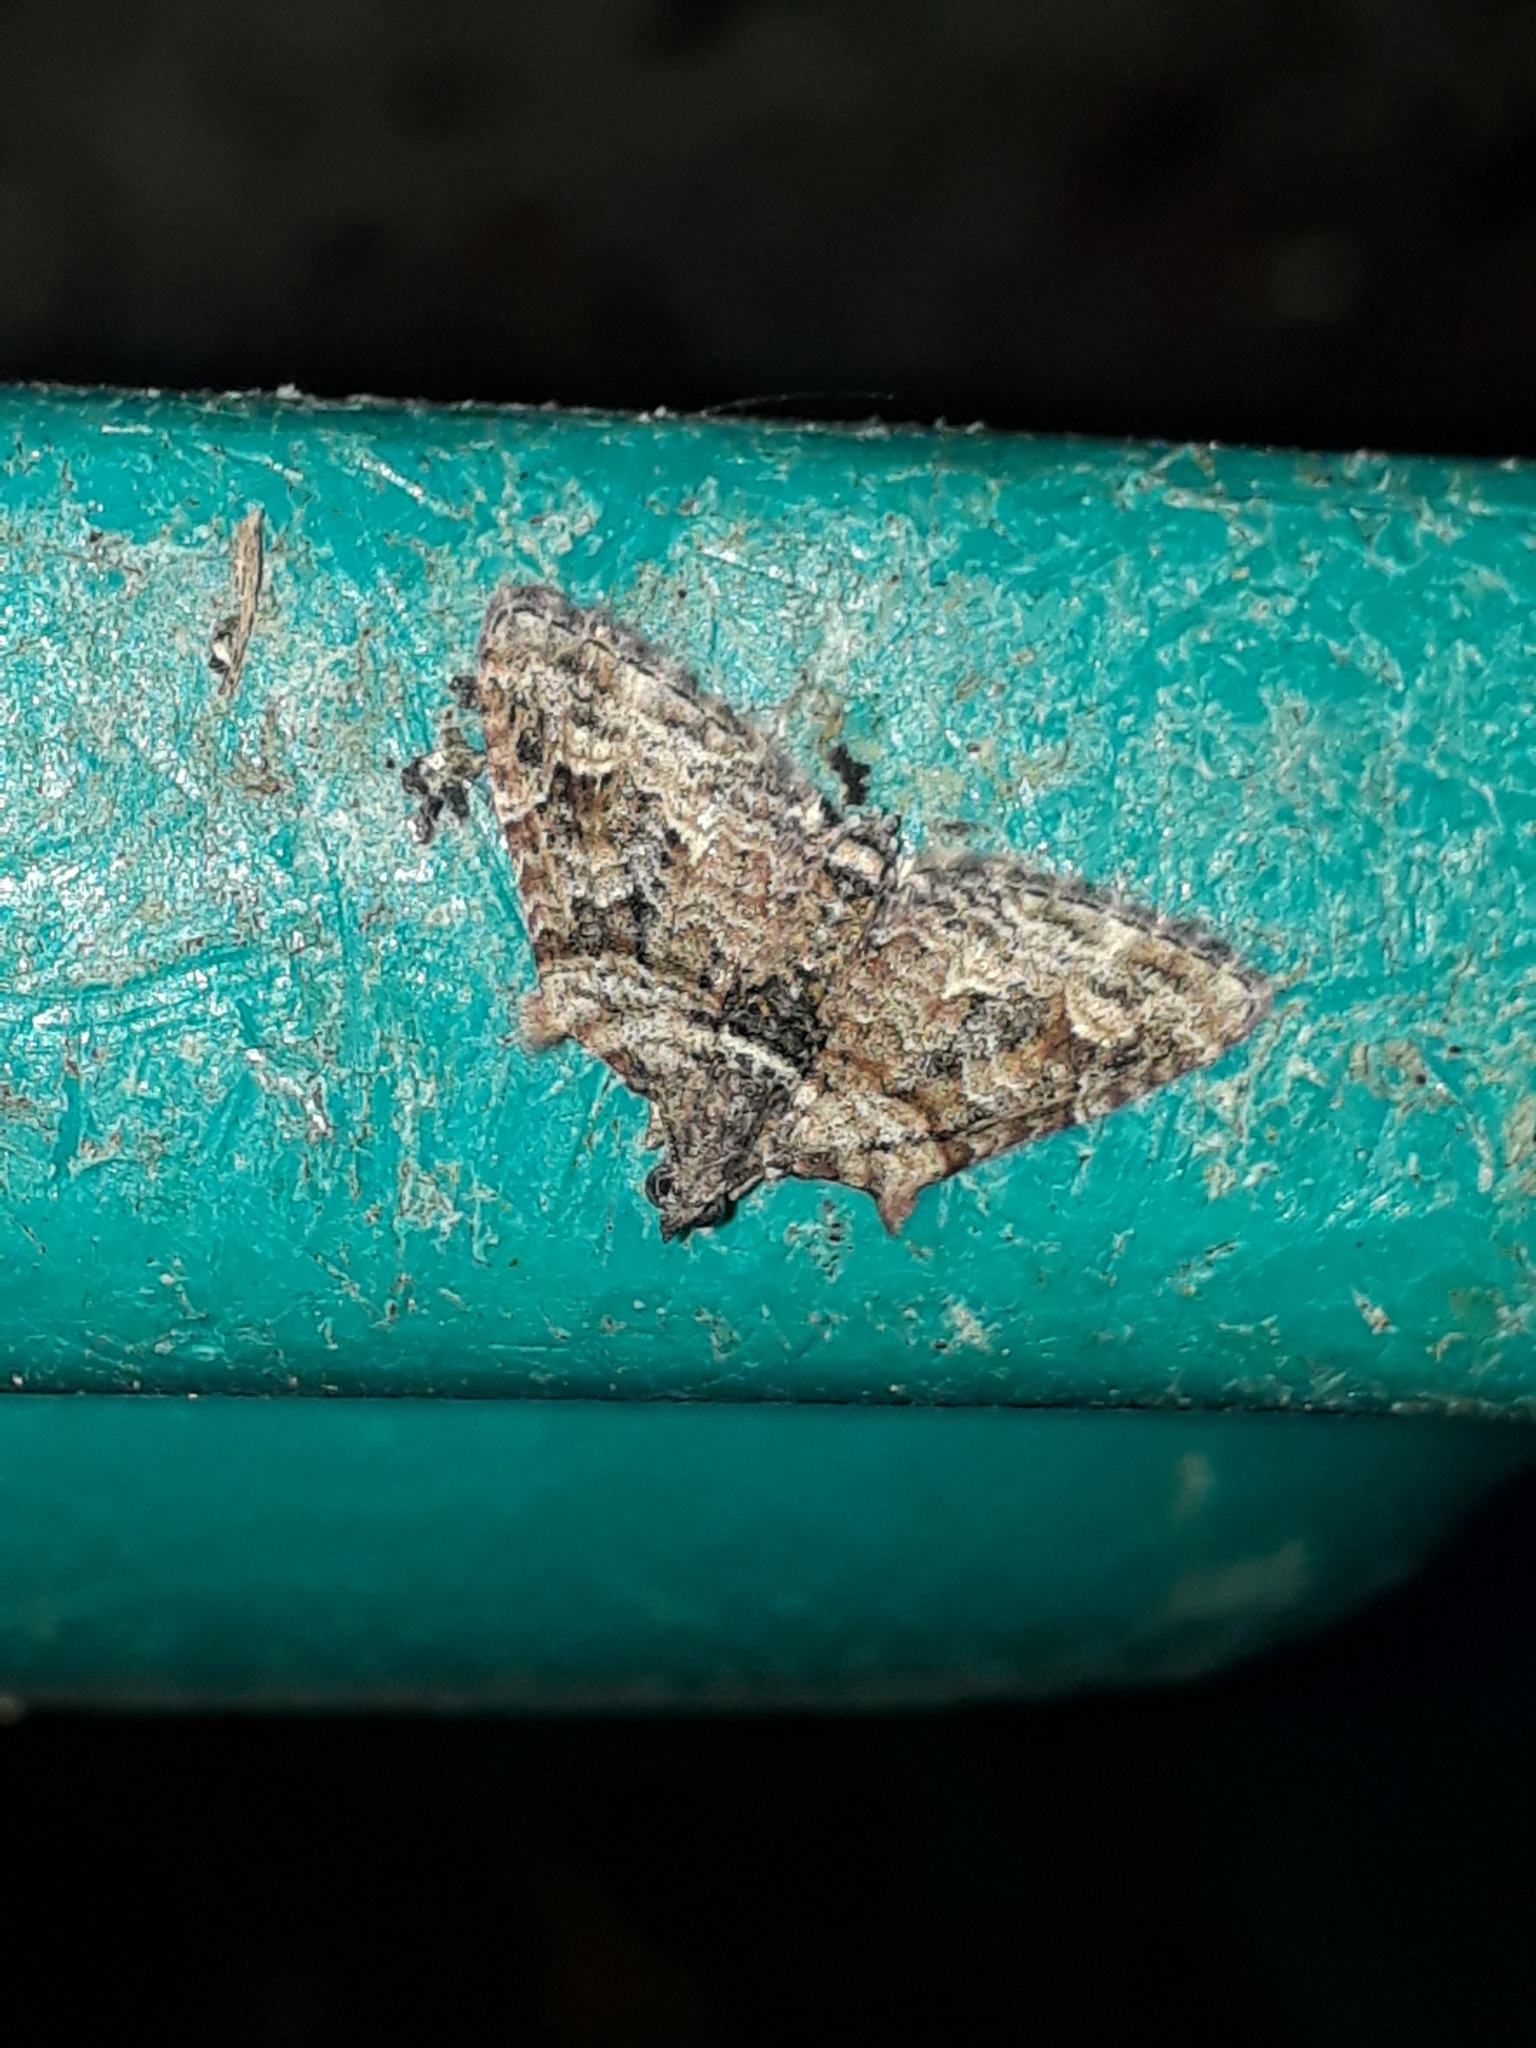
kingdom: Animalia
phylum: Arthropoda
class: Insecta
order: Lepidoptera
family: Geometridae
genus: Phrissogonus
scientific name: Phrissogonus laticostata
